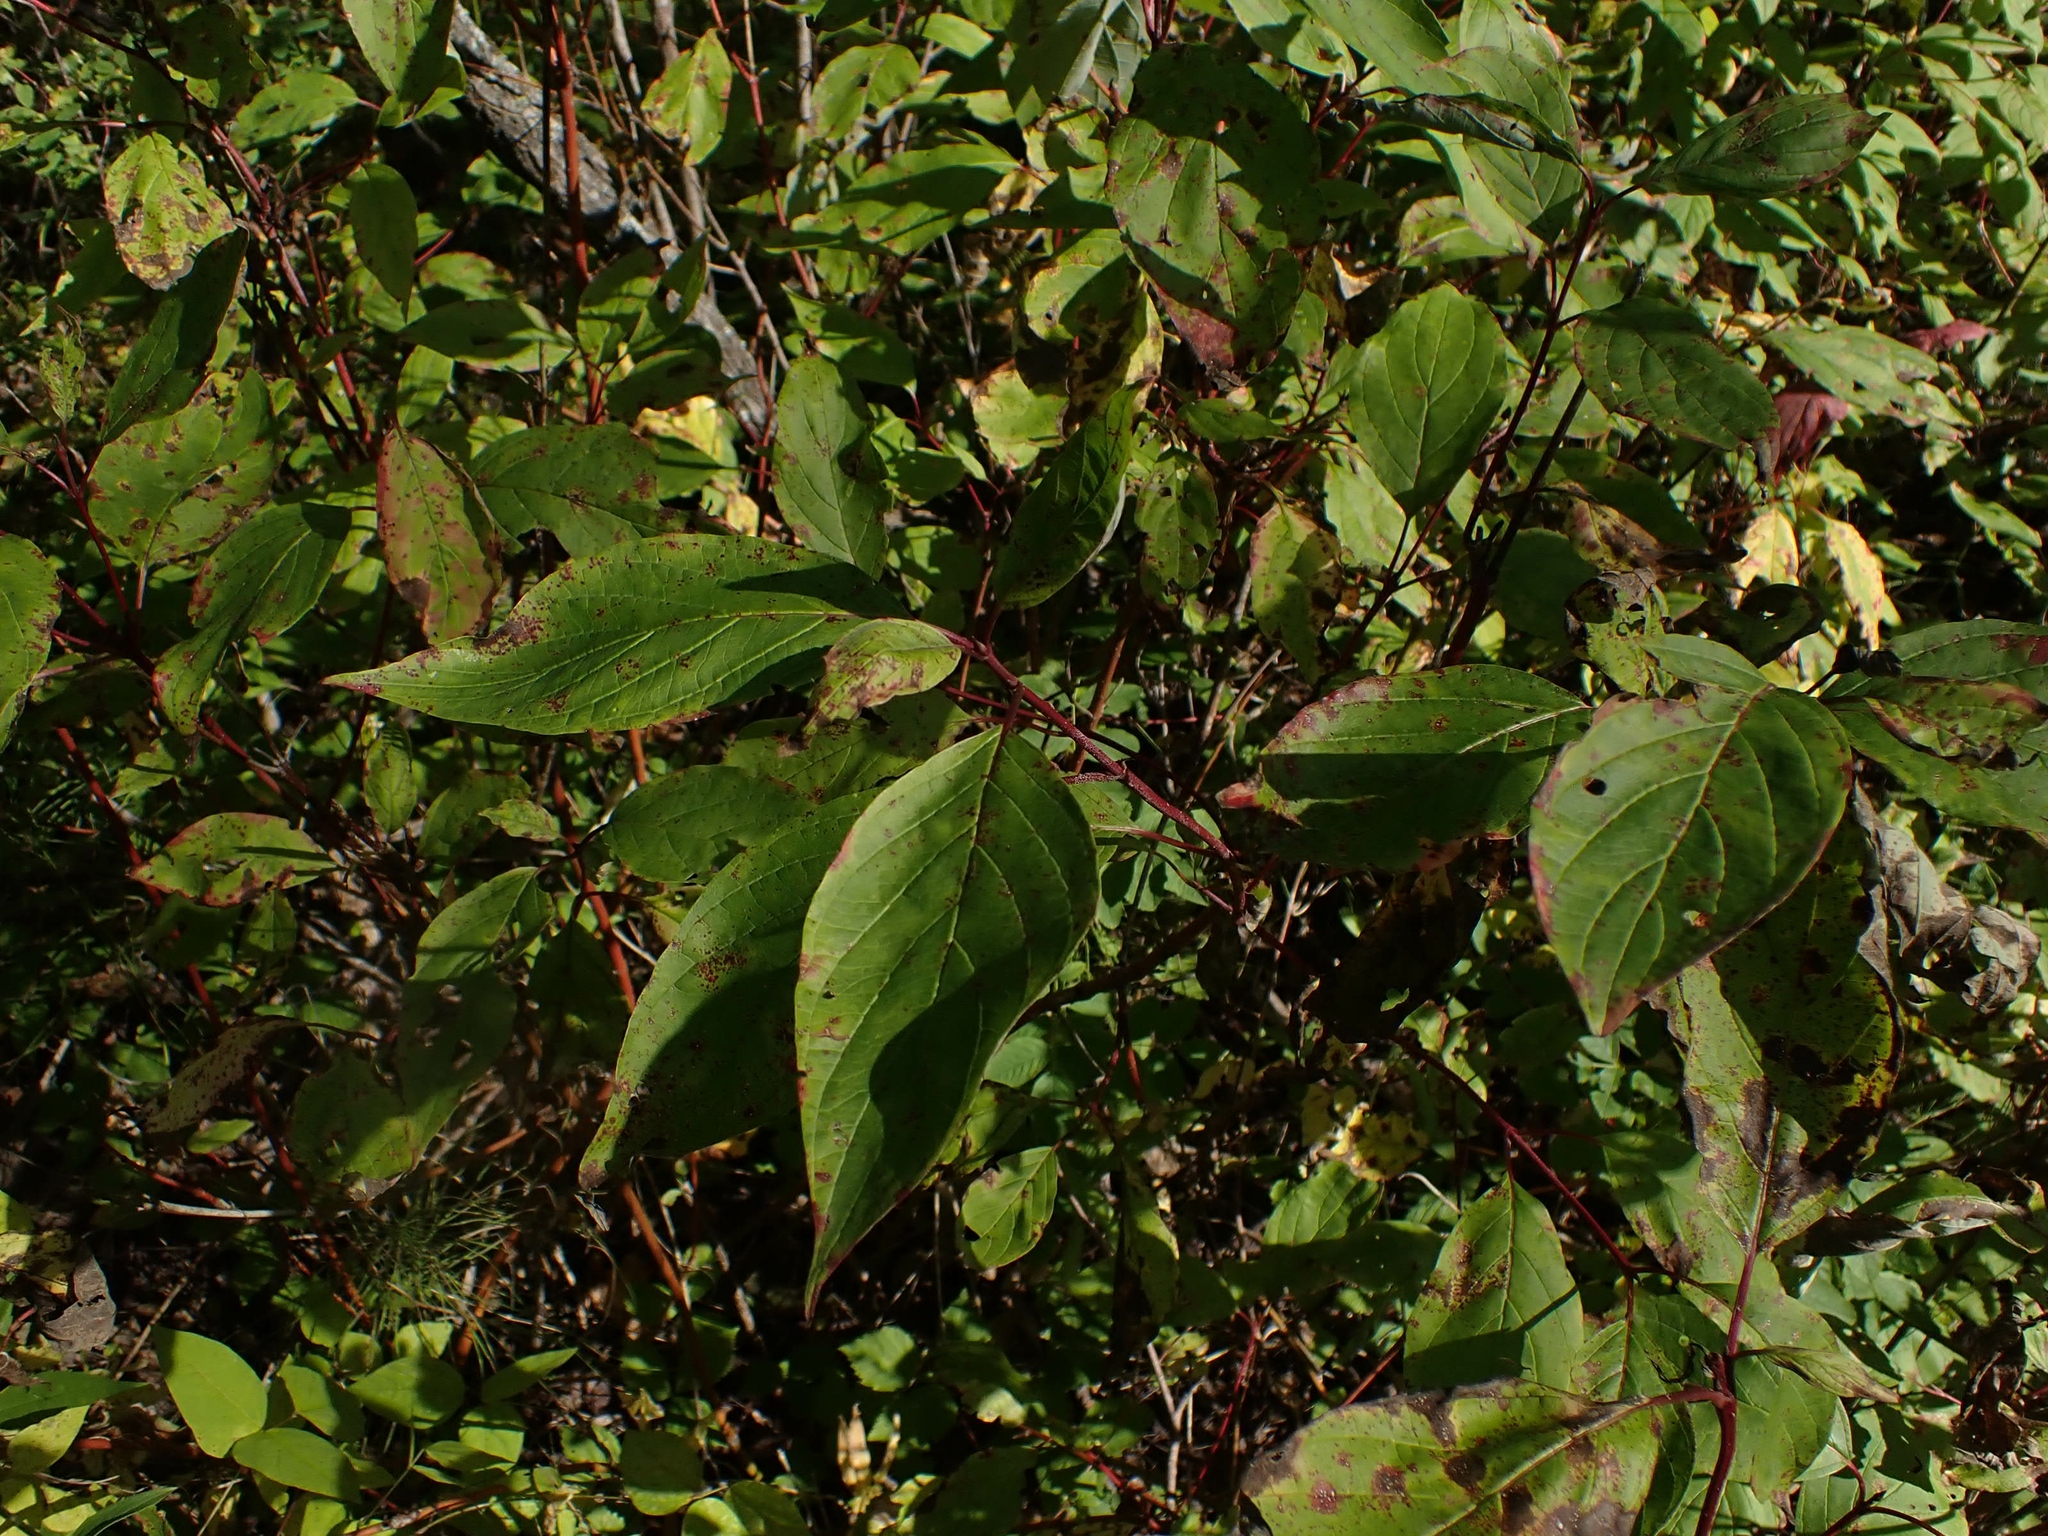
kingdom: Plantae
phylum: Tracheophyta
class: Magnoliopsida
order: Cornales
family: Cornaceae
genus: Cornus
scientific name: Cornus sericea
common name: Red-osier dogwood
